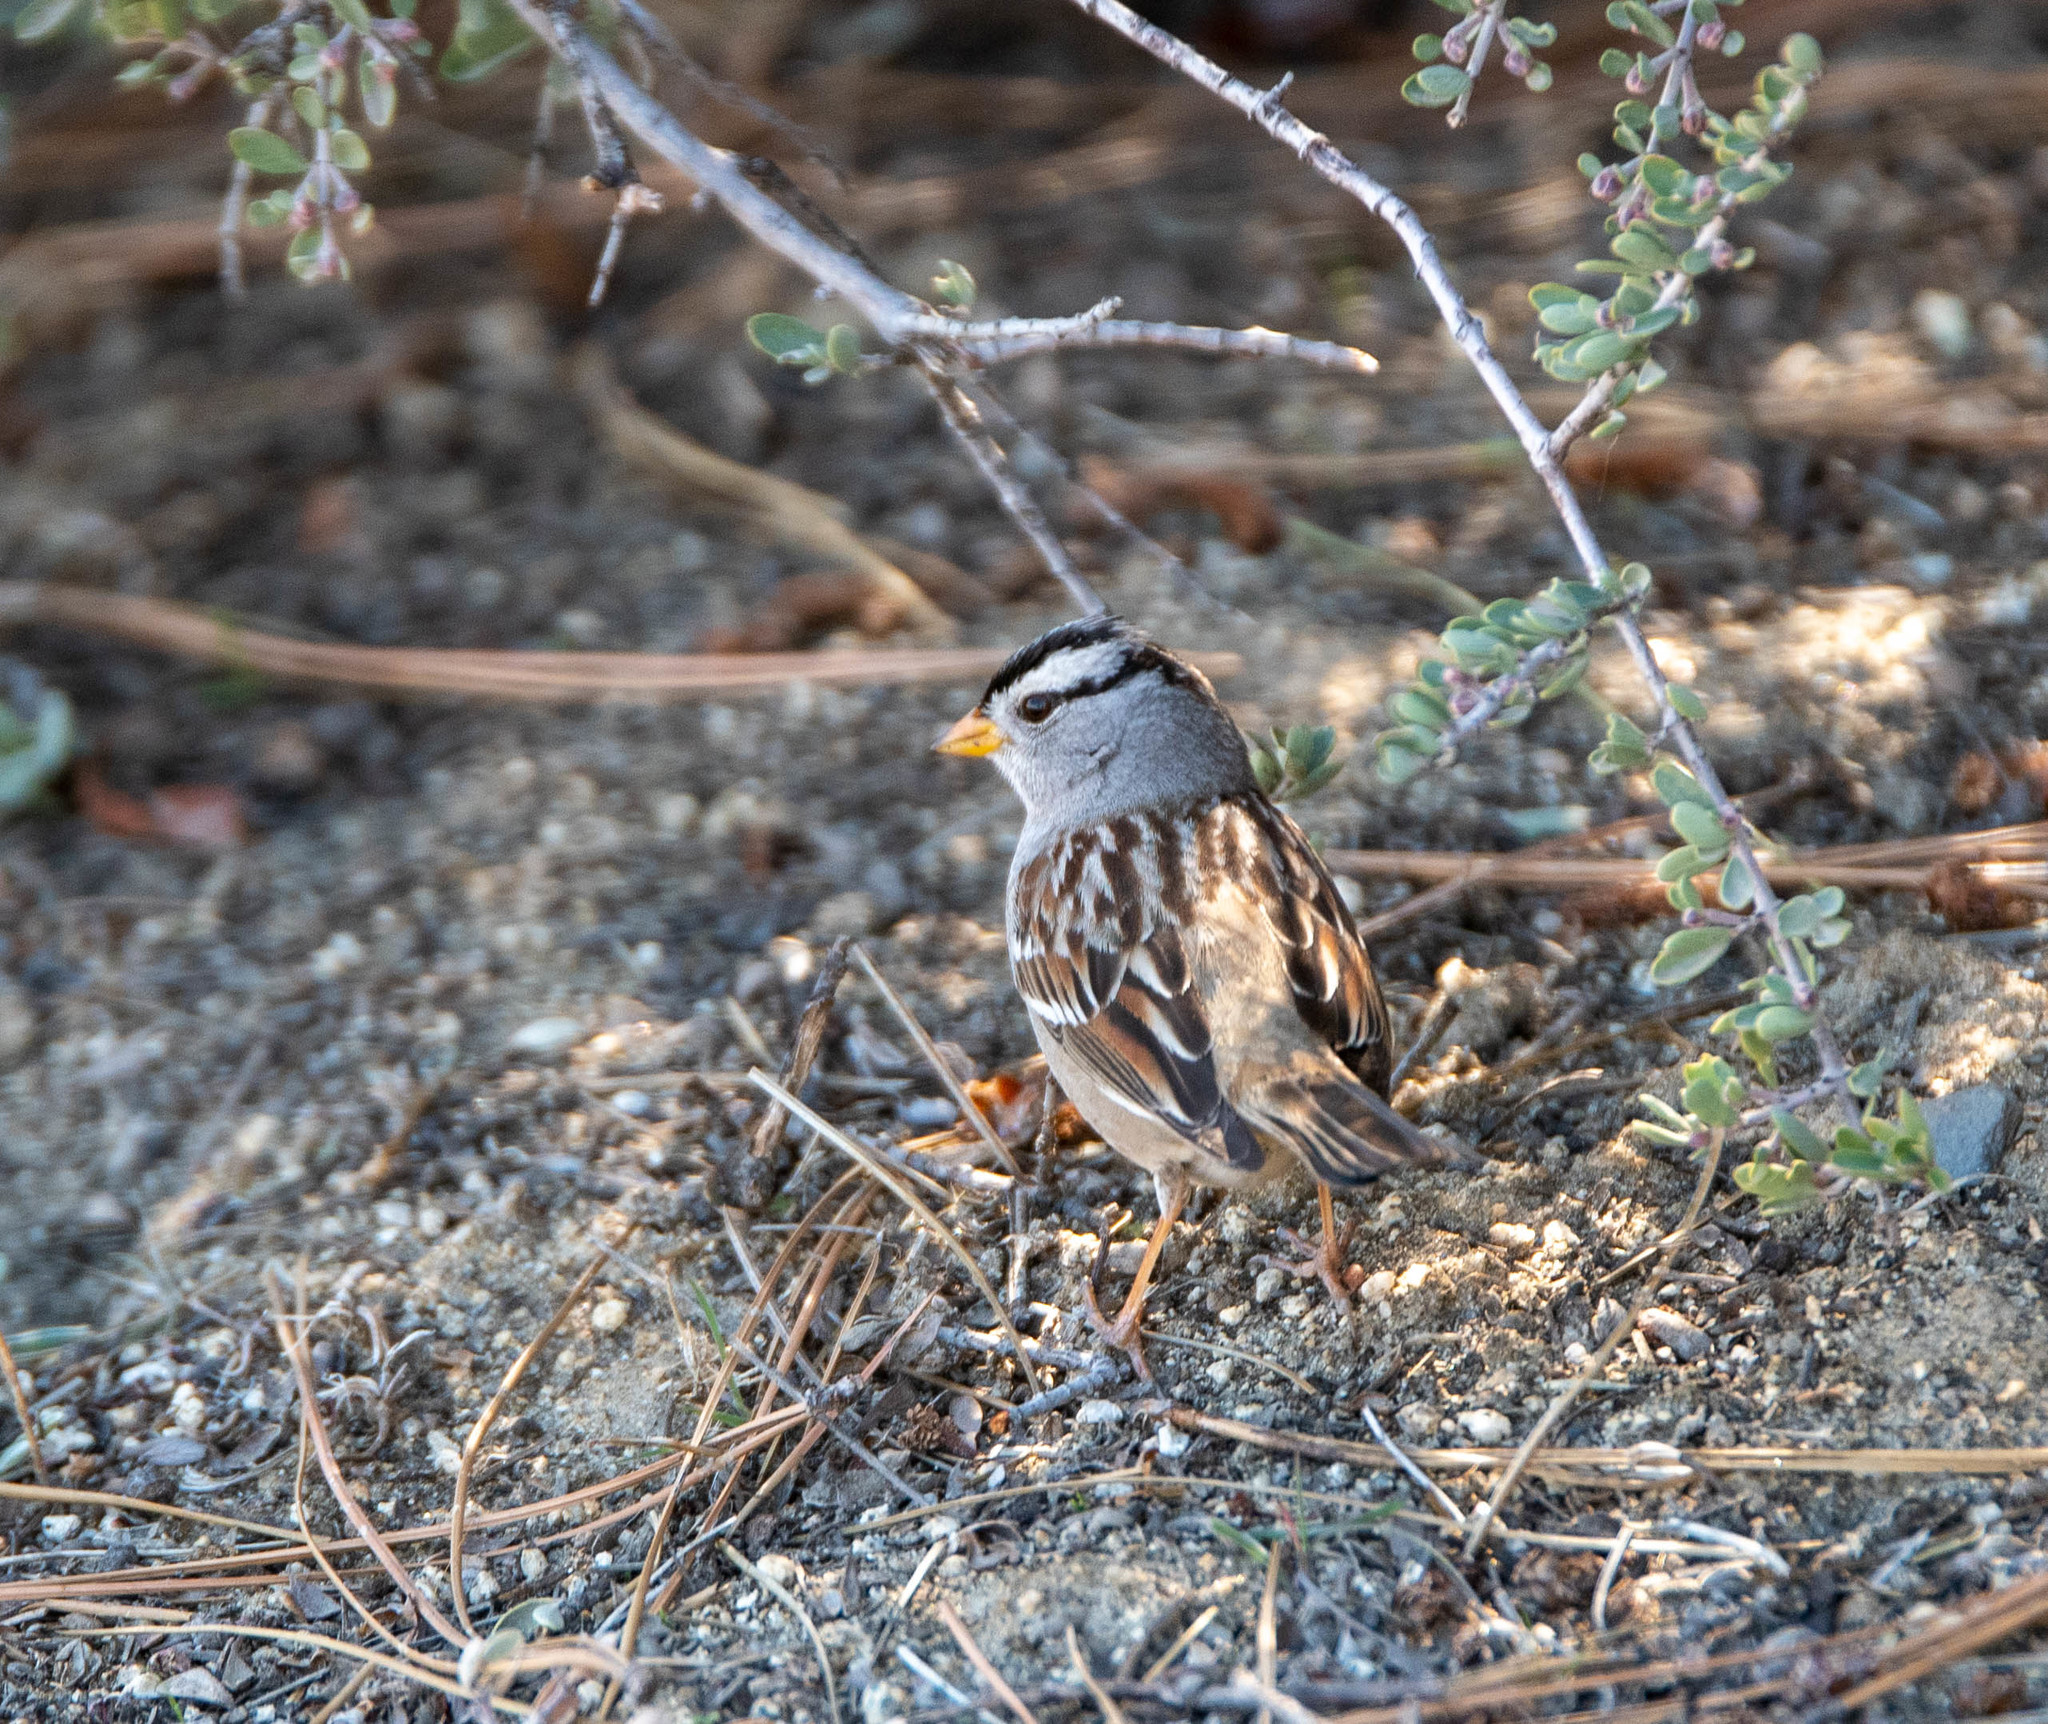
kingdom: Animalia
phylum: Chordata
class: Aves
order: Passeriformes
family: Passerellidae
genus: Zonotrichia
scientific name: Zonotrichia leucophrys
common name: White-crowned sparrow
